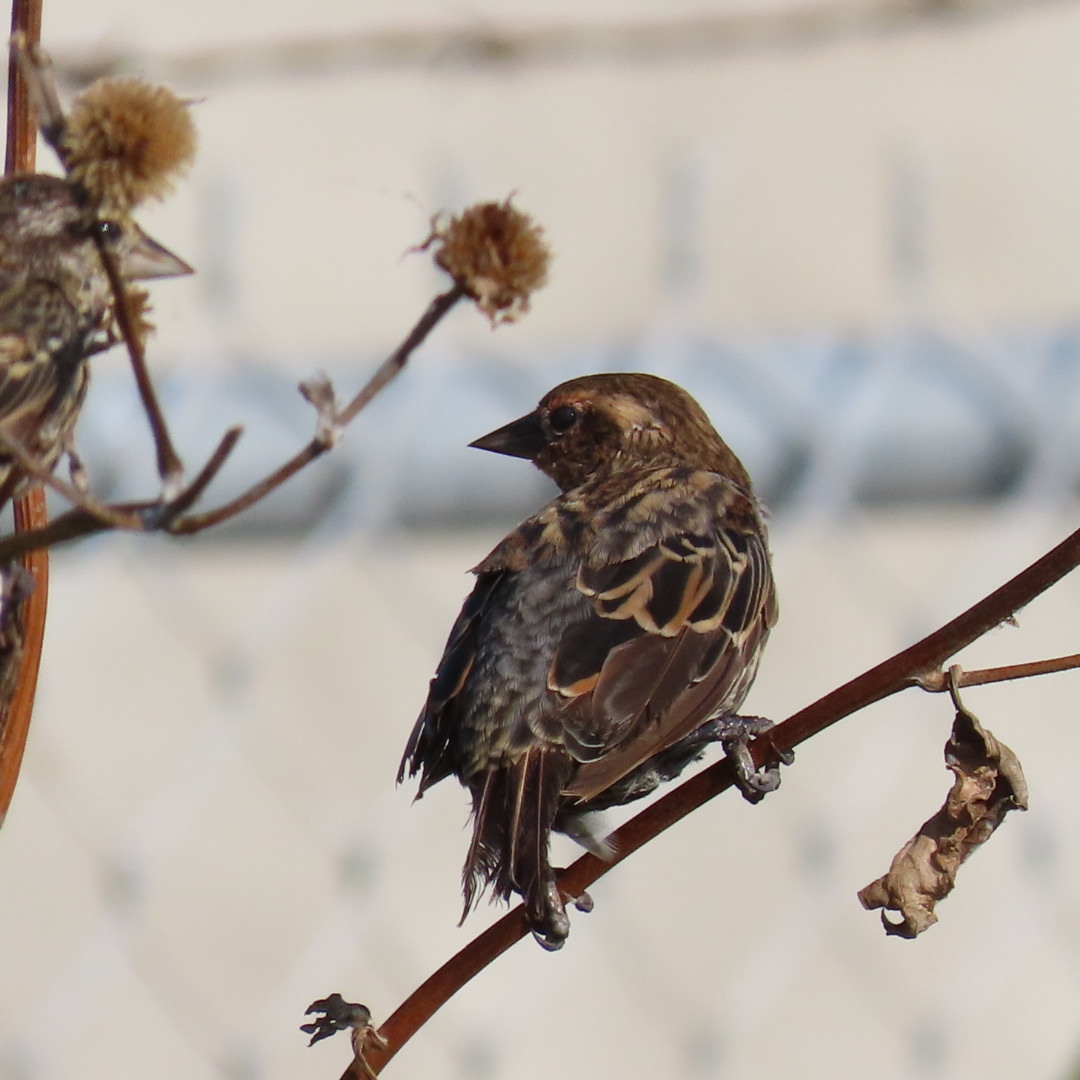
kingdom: Animalia
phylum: Chordata
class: Aves
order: Passeriformes
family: Icteridae
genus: Agelaius
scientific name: Agelaius phoeniceus
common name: Red-winged blackbird
